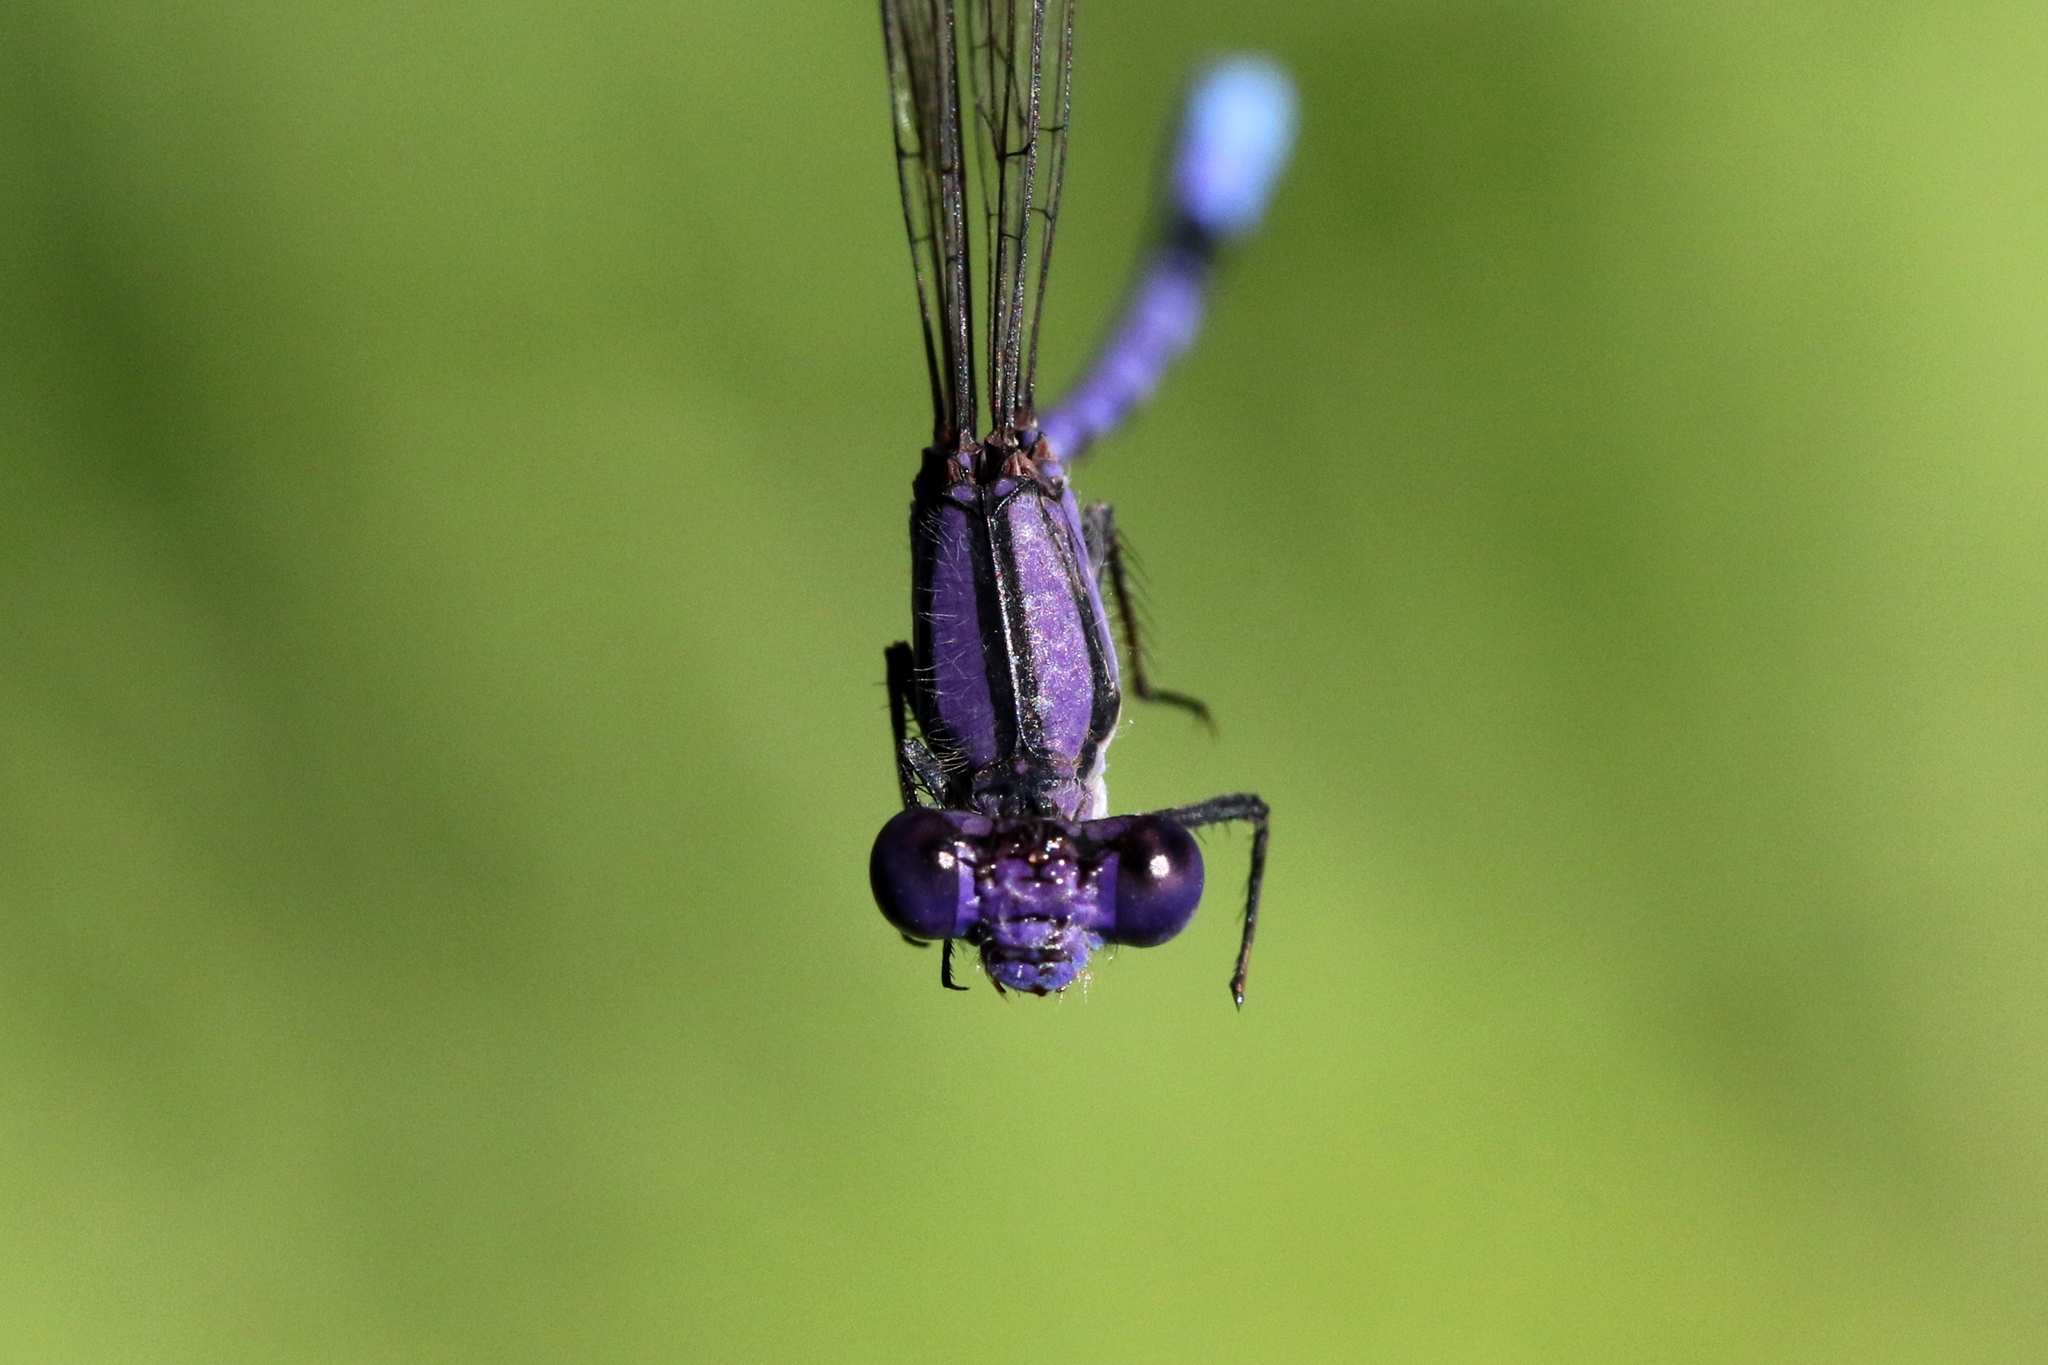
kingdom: Animalia
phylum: Arthropoda
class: Insecta
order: Odonata
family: Coenagrionidae
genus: Argia
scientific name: Argia fumipennis
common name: Variable dancer
